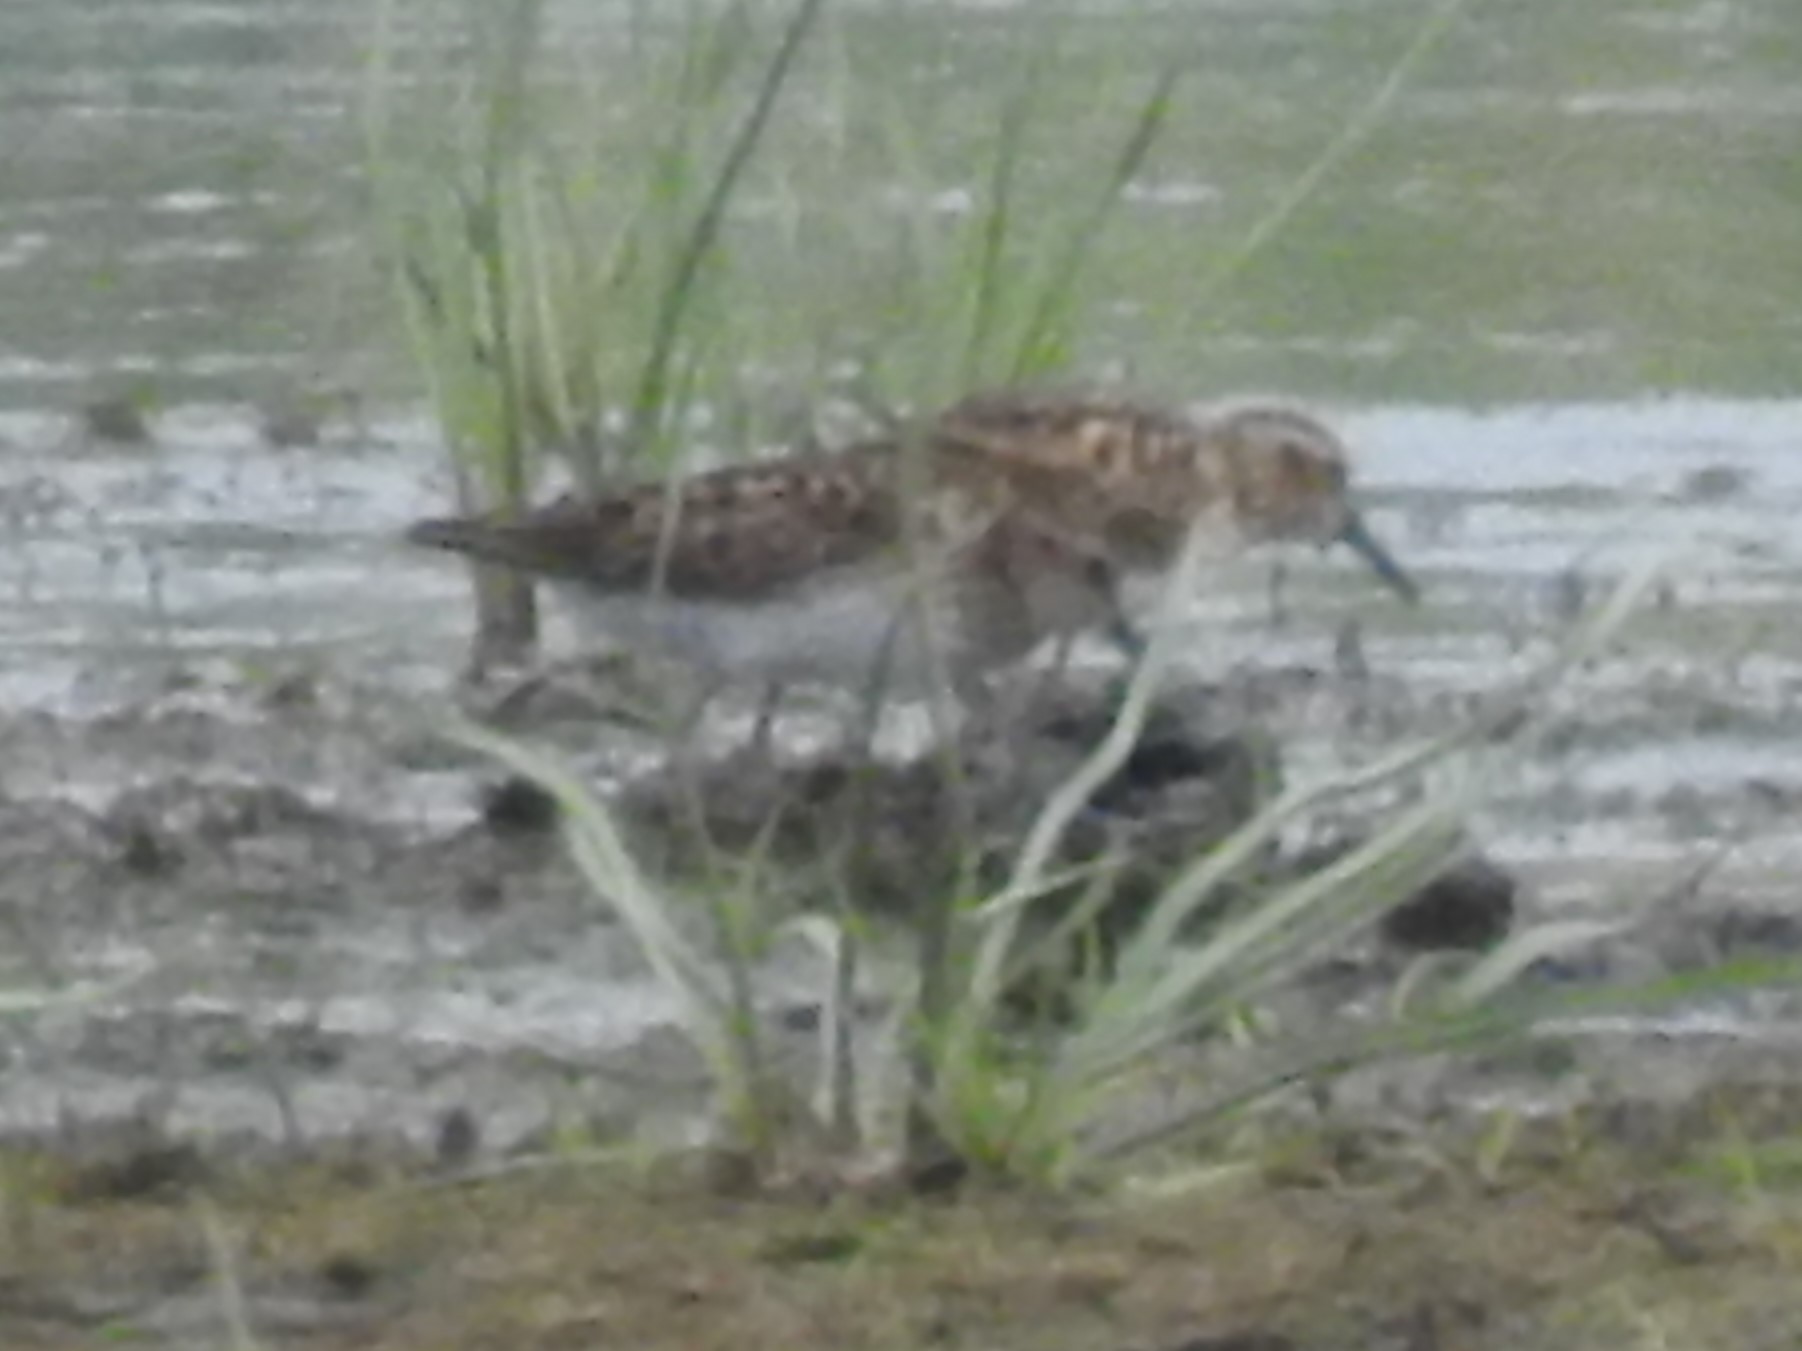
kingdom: Animalia
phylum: Chordata
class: Aves
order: Charadriiformes
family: Scolopacidae
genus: Calidris
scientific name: Calidris minutilla
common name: Least sandpiper
